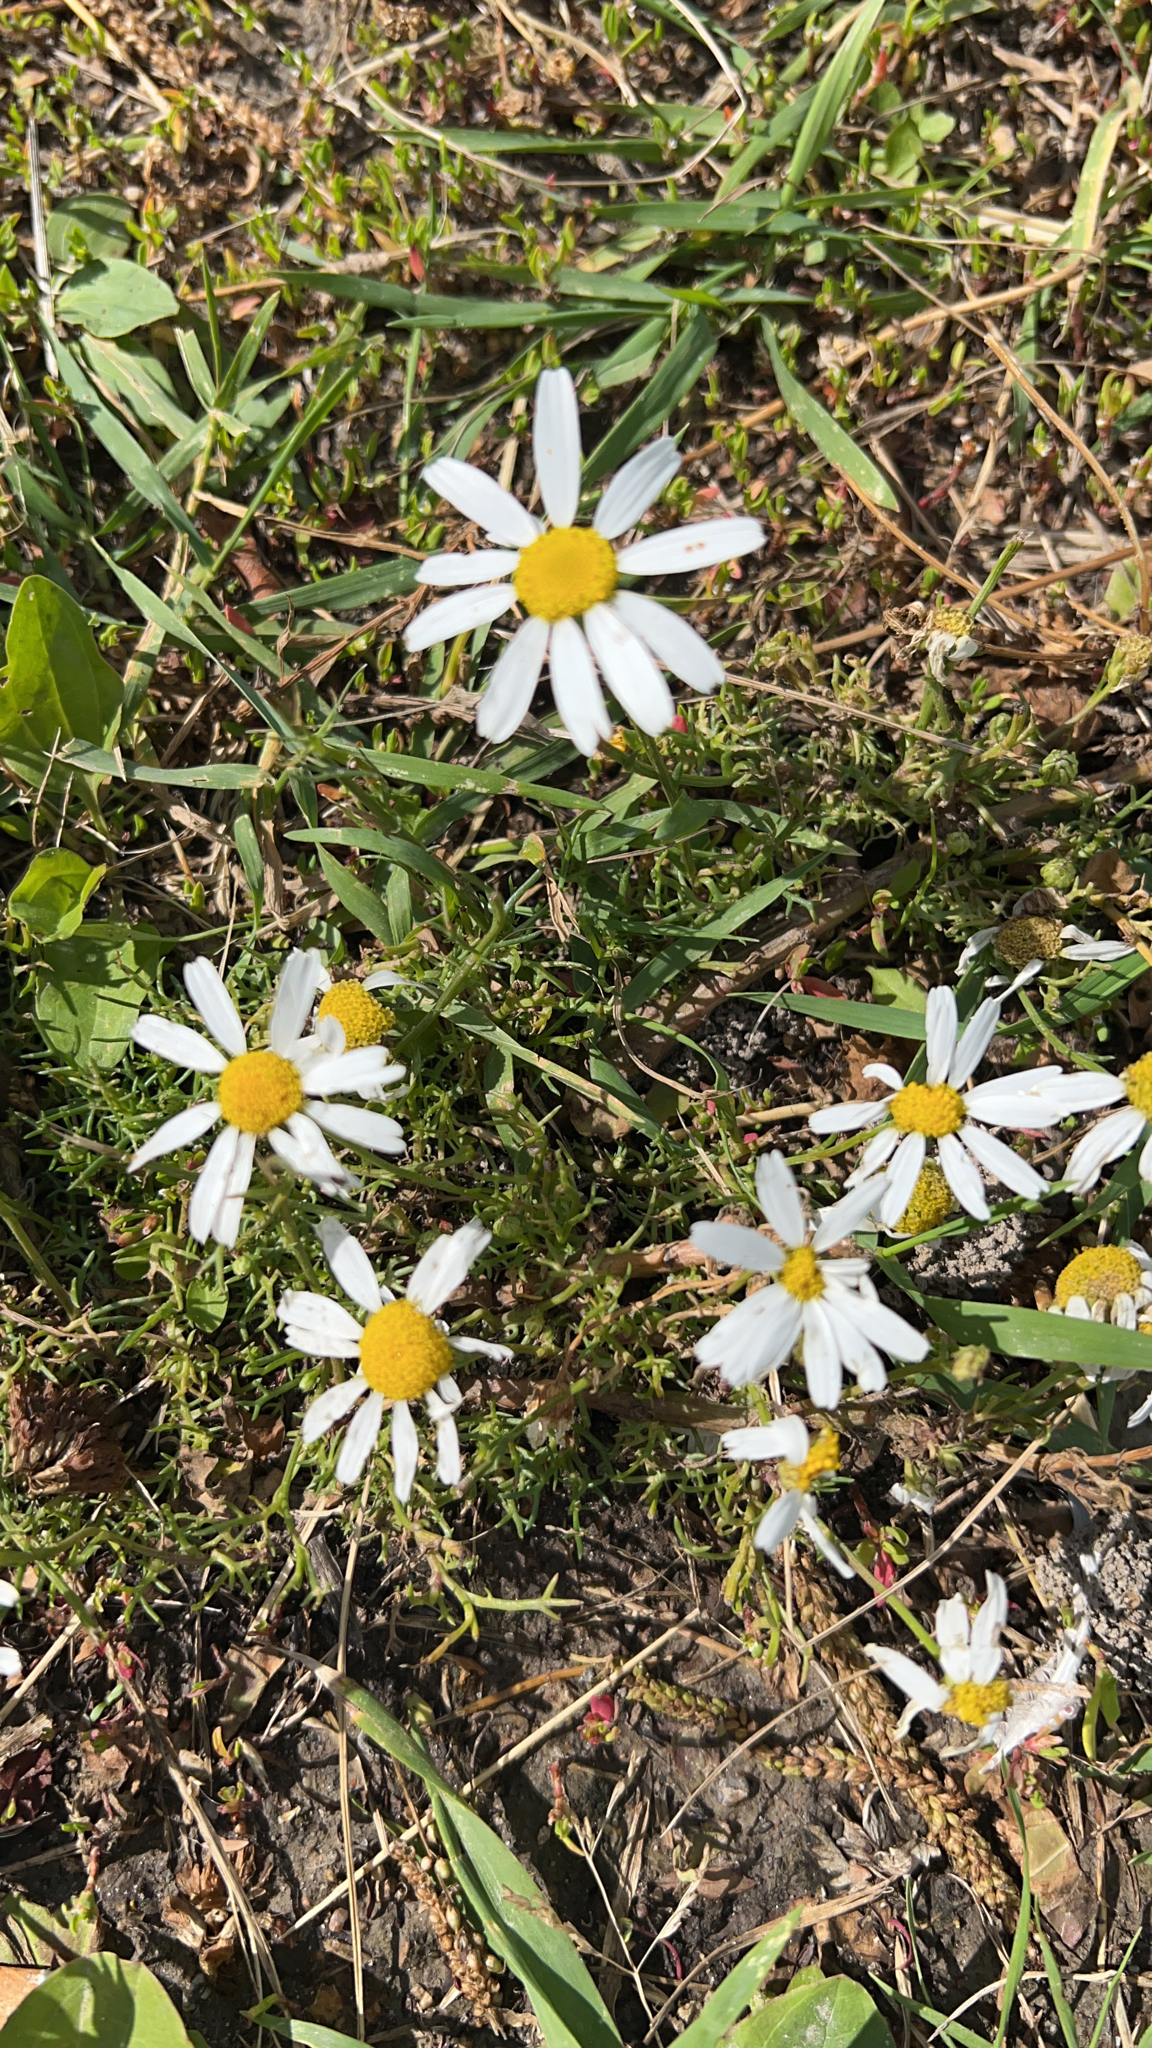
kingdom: Plantae
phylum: Tracheophyta
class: Magnoliopsida
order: Asterales
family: Asteraceae
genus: Tripleurospermum
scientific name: Tripleurospermum inodorum
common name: Scentless mayweed
